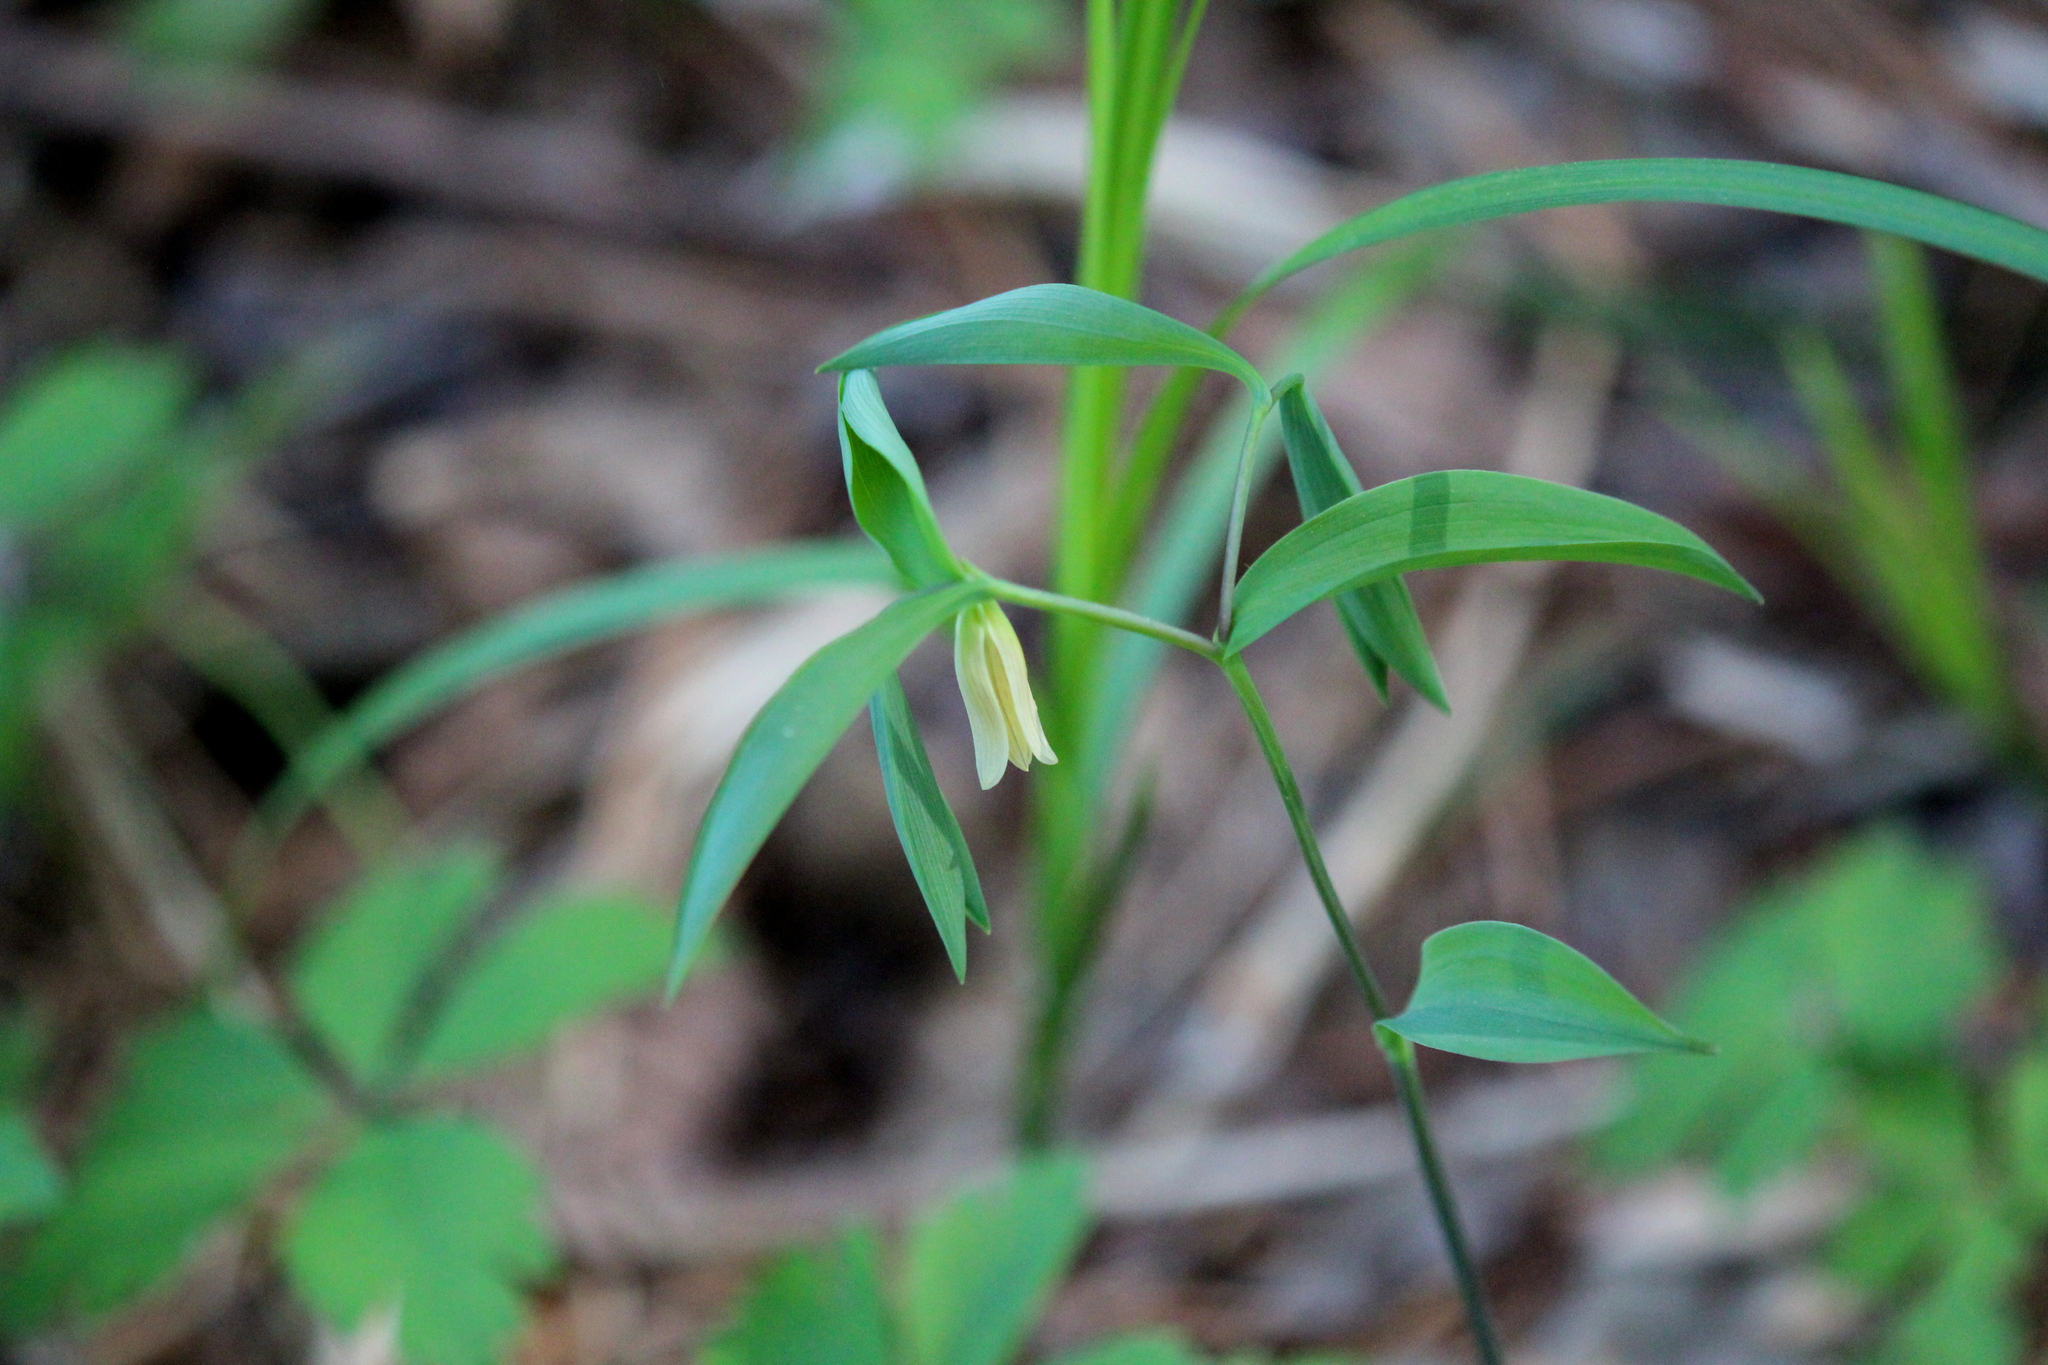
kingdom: Plantae
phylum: Tracheophyta
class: Liliopsida
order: Liliales
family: Colchicaceae
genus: Uvularia
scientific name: Uvularia sessilifolia
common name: Straw-lily
